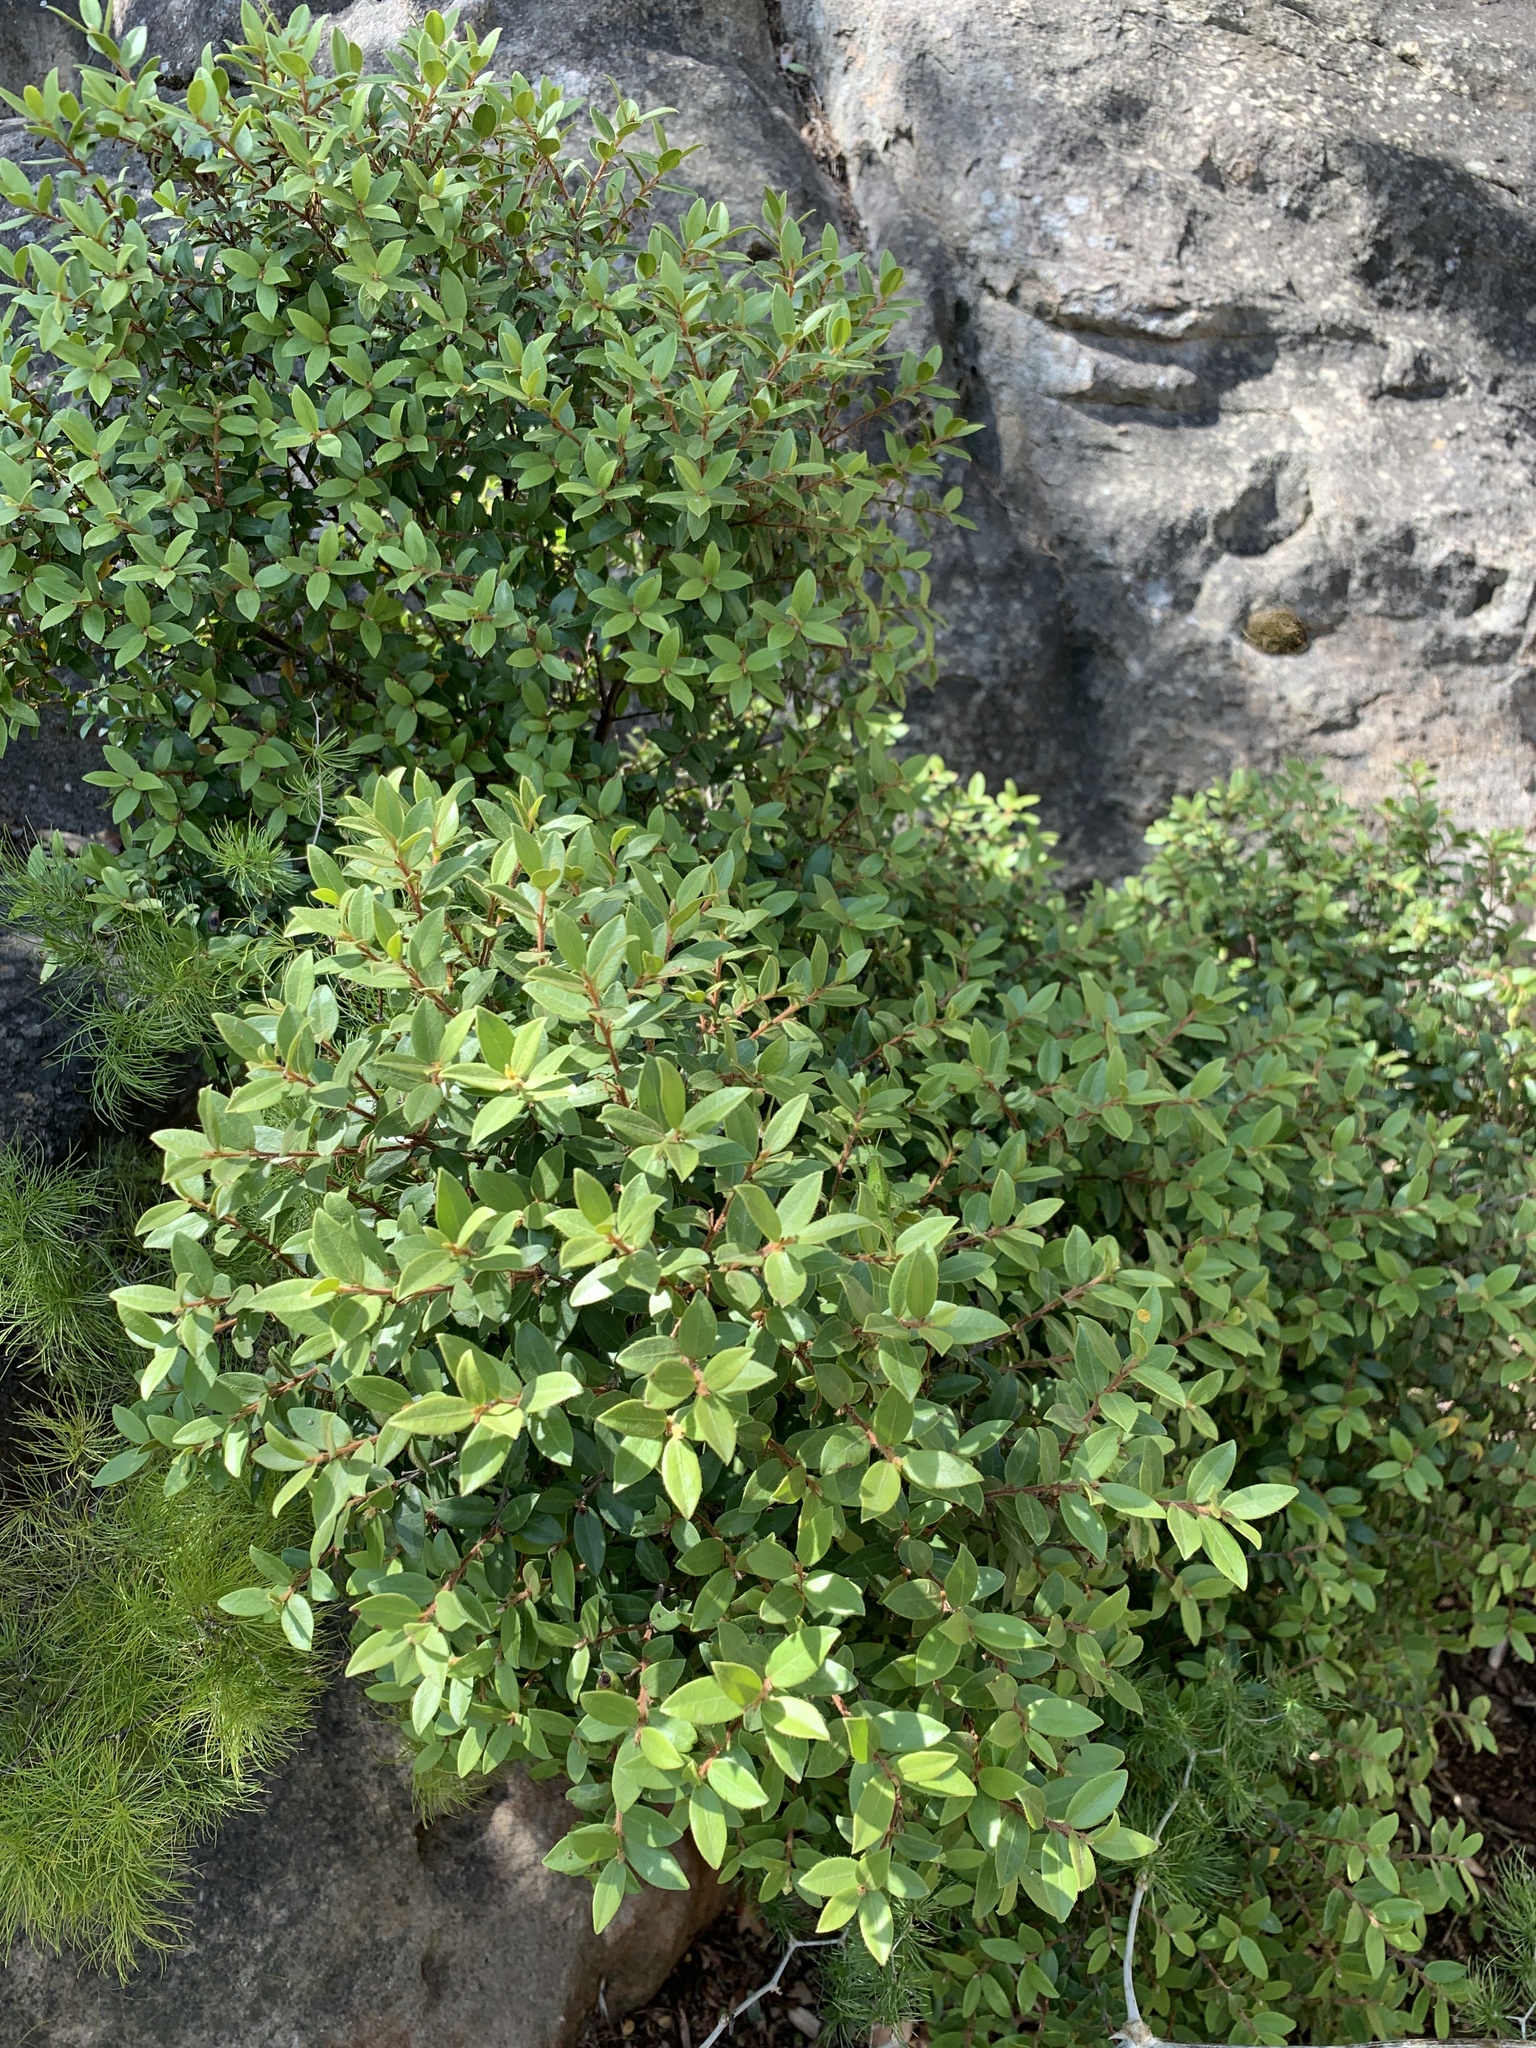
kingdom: Plantae
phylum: Tracheophyta
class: Magnoliopsida
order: Ericales
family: Ebenaceae
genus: Diospyros
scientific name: Diospyros glabra
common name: Fynbos star apple
